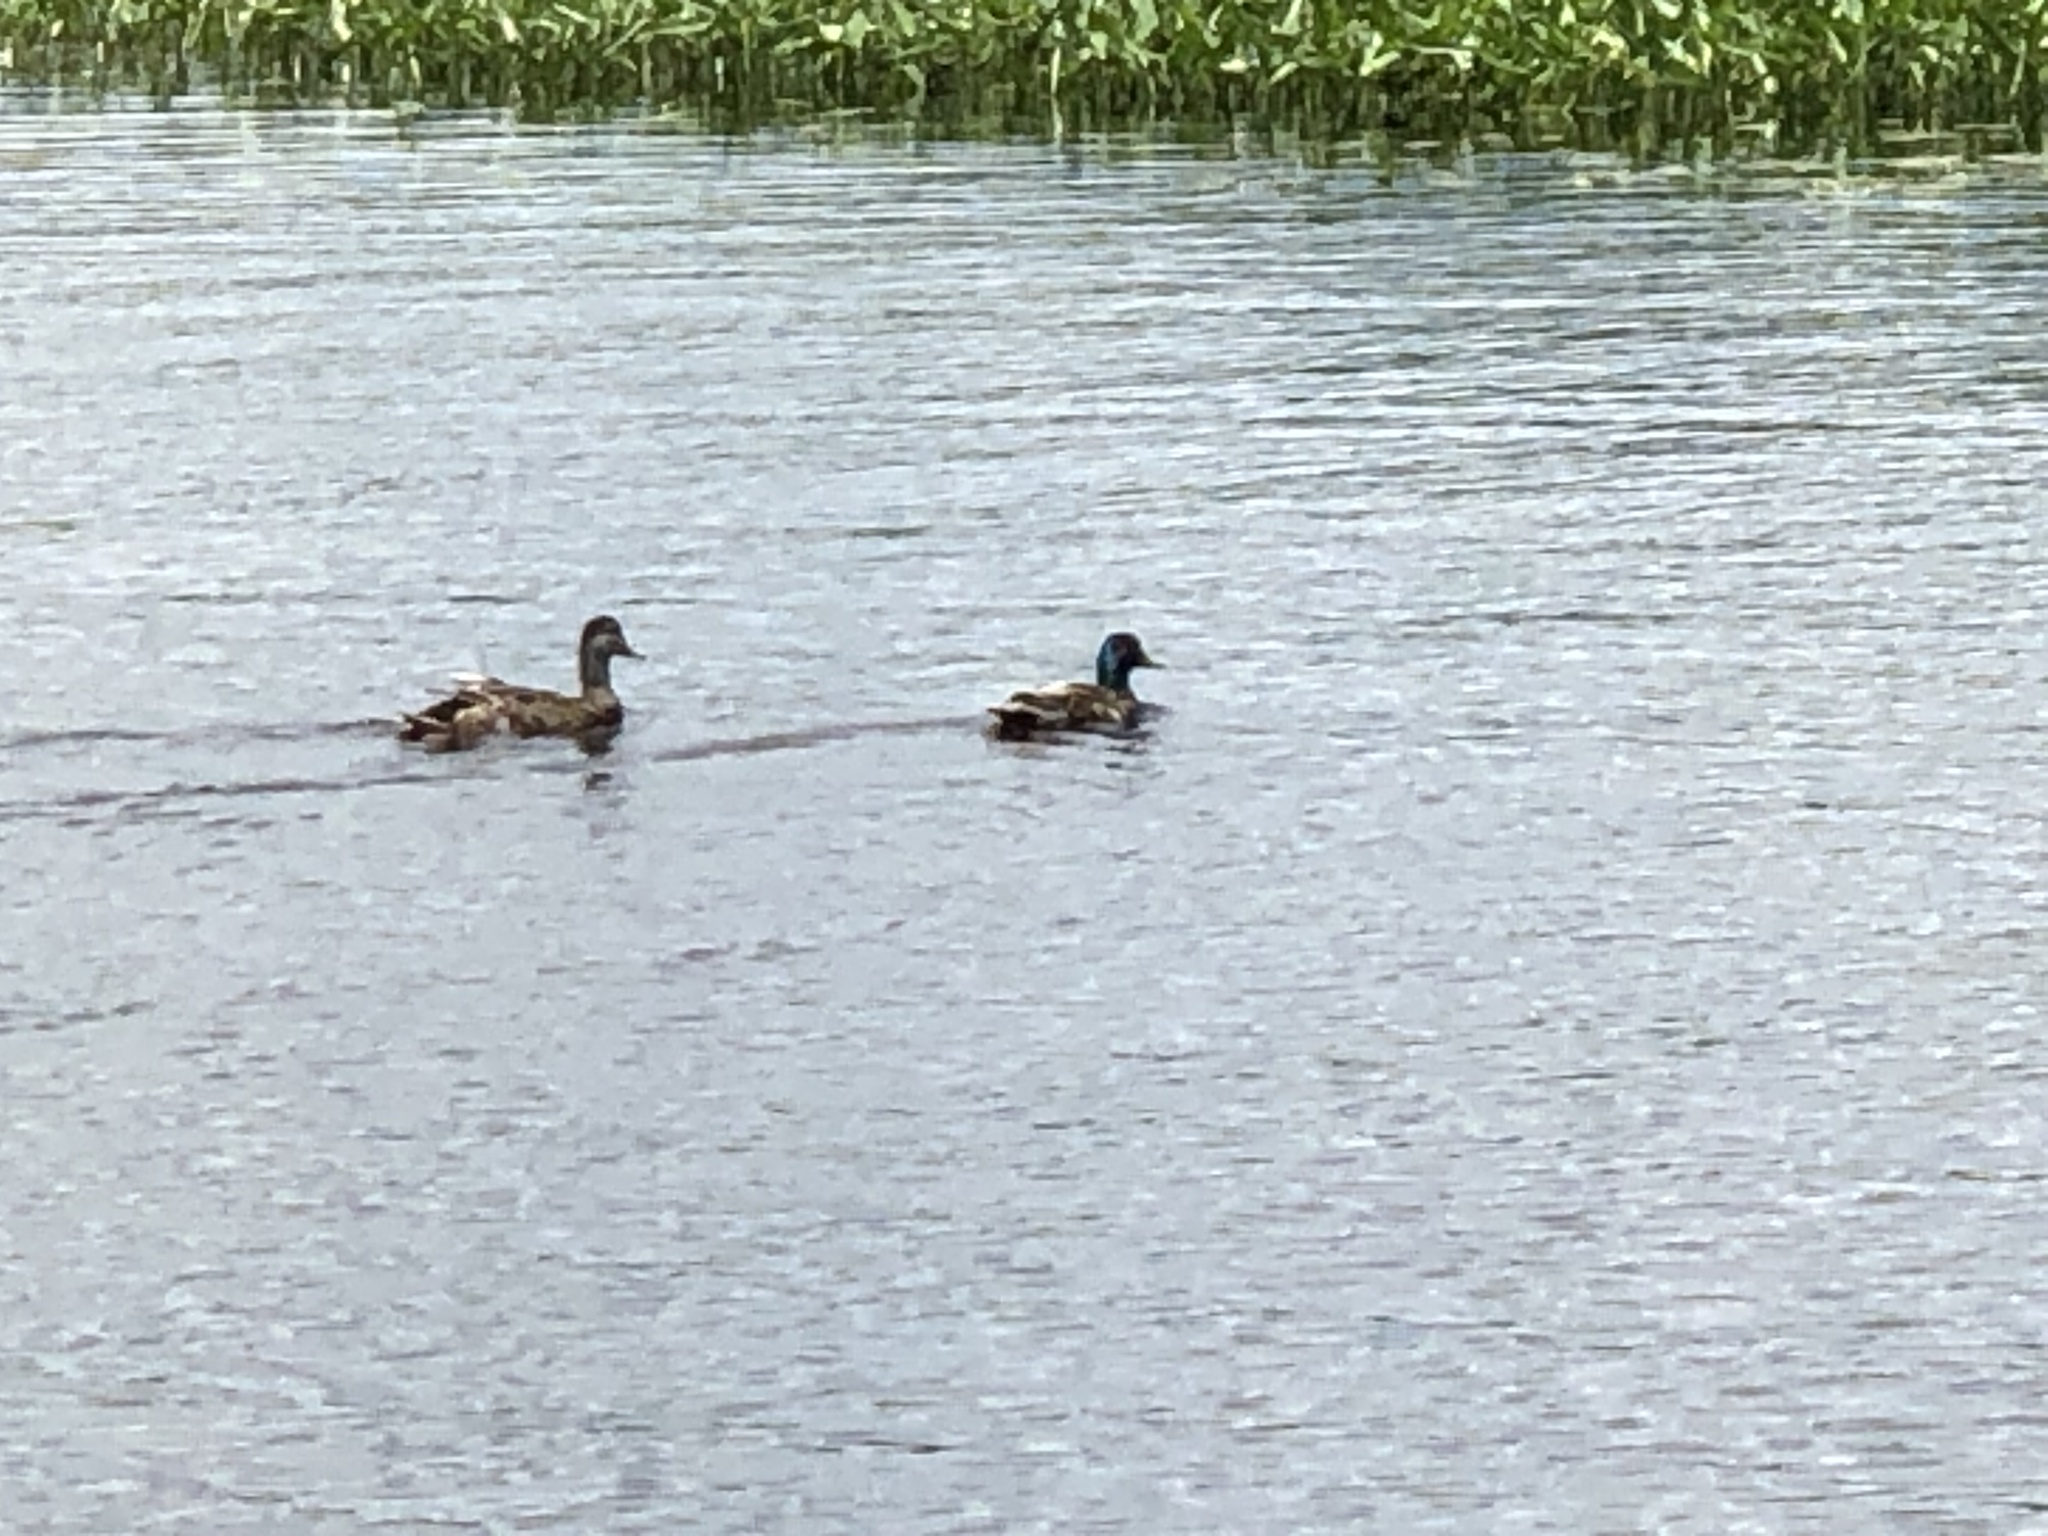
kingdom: Animalia
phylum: Chordata
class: Aves
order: Anseriformes
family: Anatidae
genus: Anas
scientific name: Anas platyrhynchos
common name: Mallard
